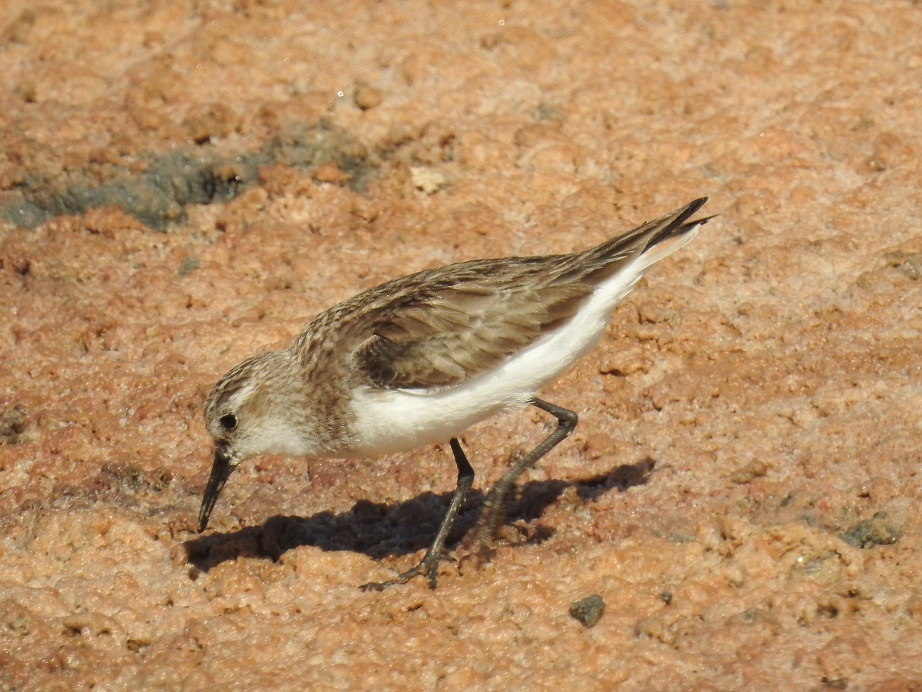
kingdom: Animalia
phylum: Chordata
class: Aves
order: Charadriiformes
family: Scolopacidae
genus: Calidris
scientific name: Calidris minuta
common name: Little stint
